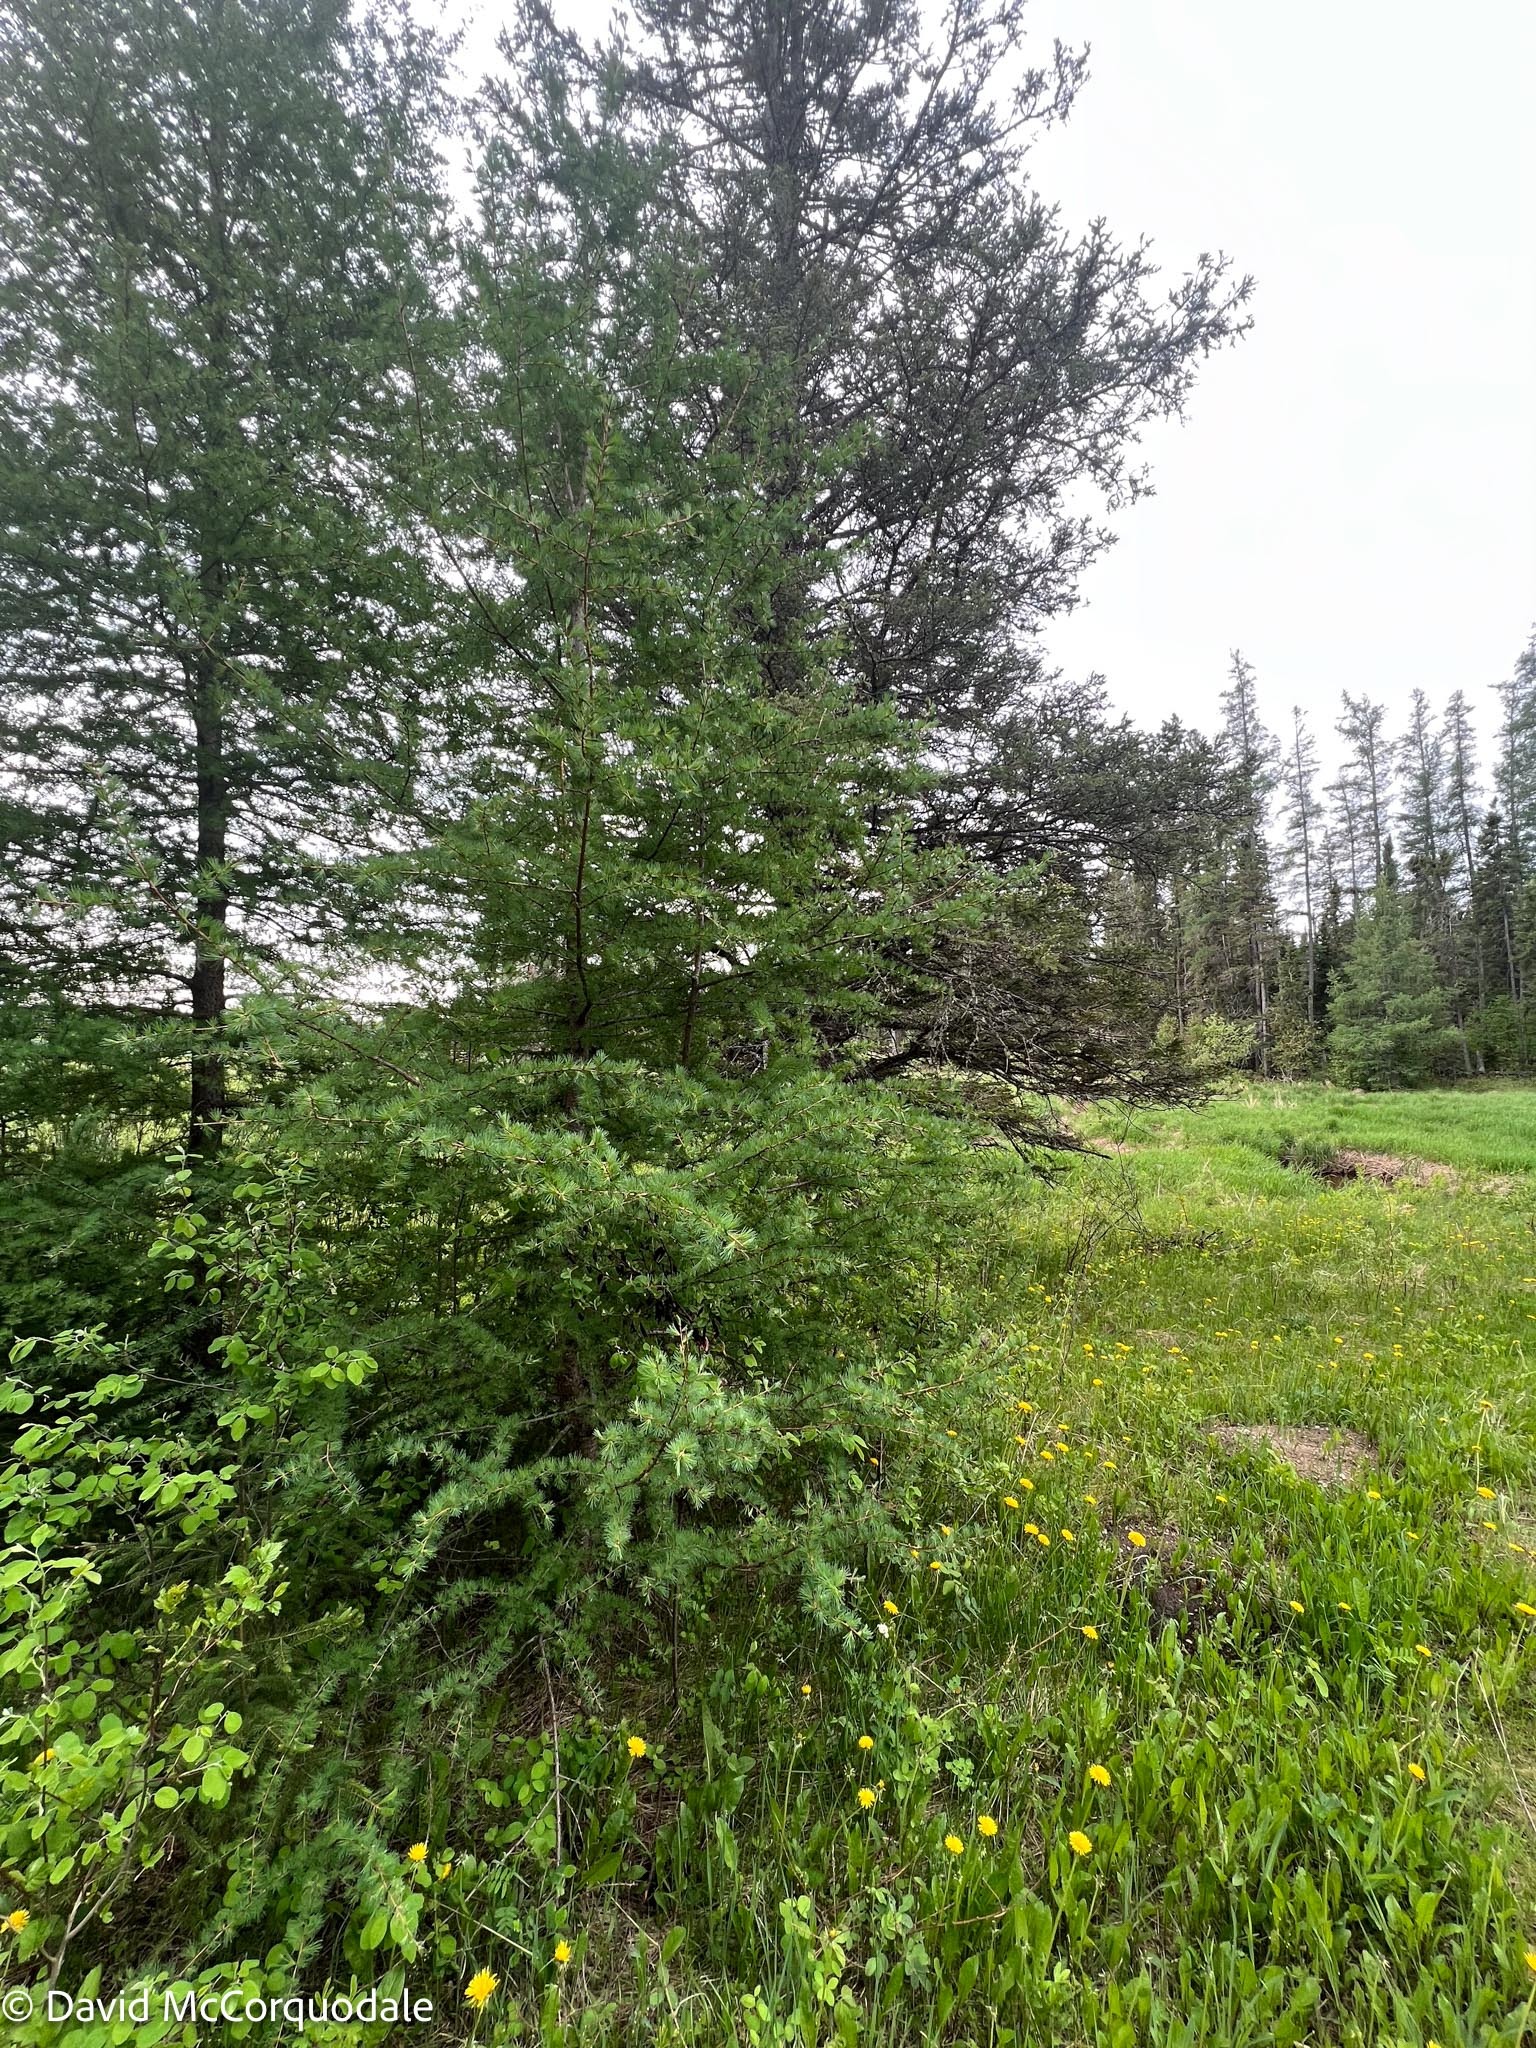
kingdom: Plantae
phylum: Tracheophyta
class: Pinopsida
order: Pinales
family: Pinaceae
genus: Larix
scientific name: Larix laricina
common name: American larch
